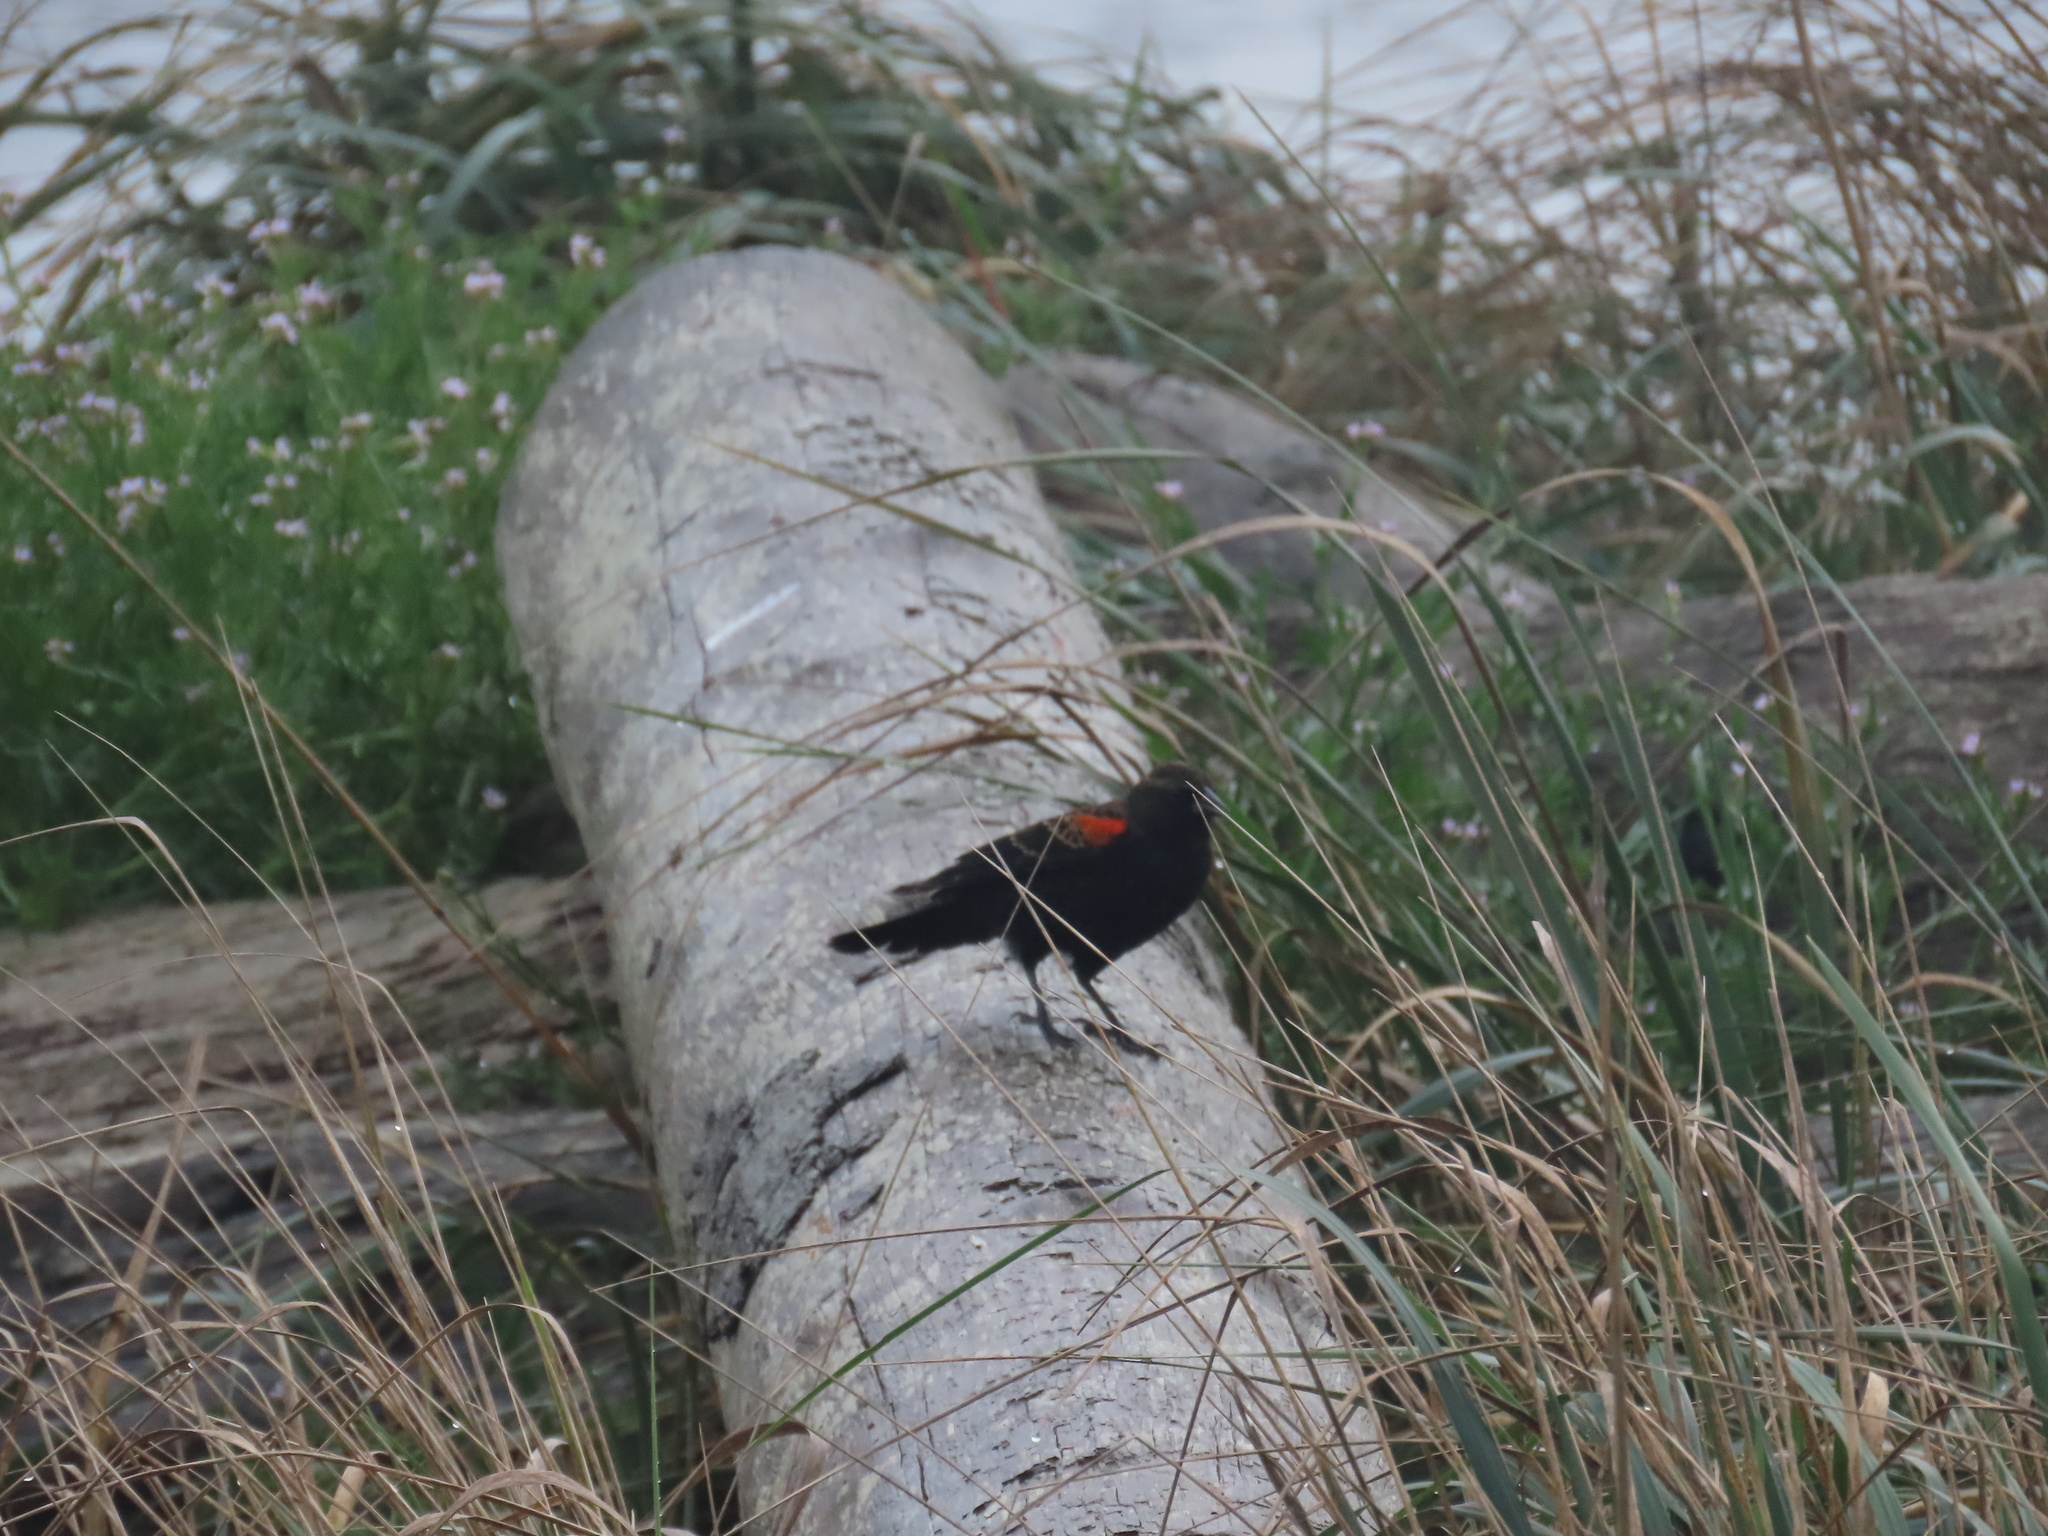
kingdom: Animalia
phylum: Chordata
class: Aves
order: Passeriformes
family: Icteridae
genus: Agelaius
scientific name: Agelaius phoeniceus
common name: Red-winged blackbird
